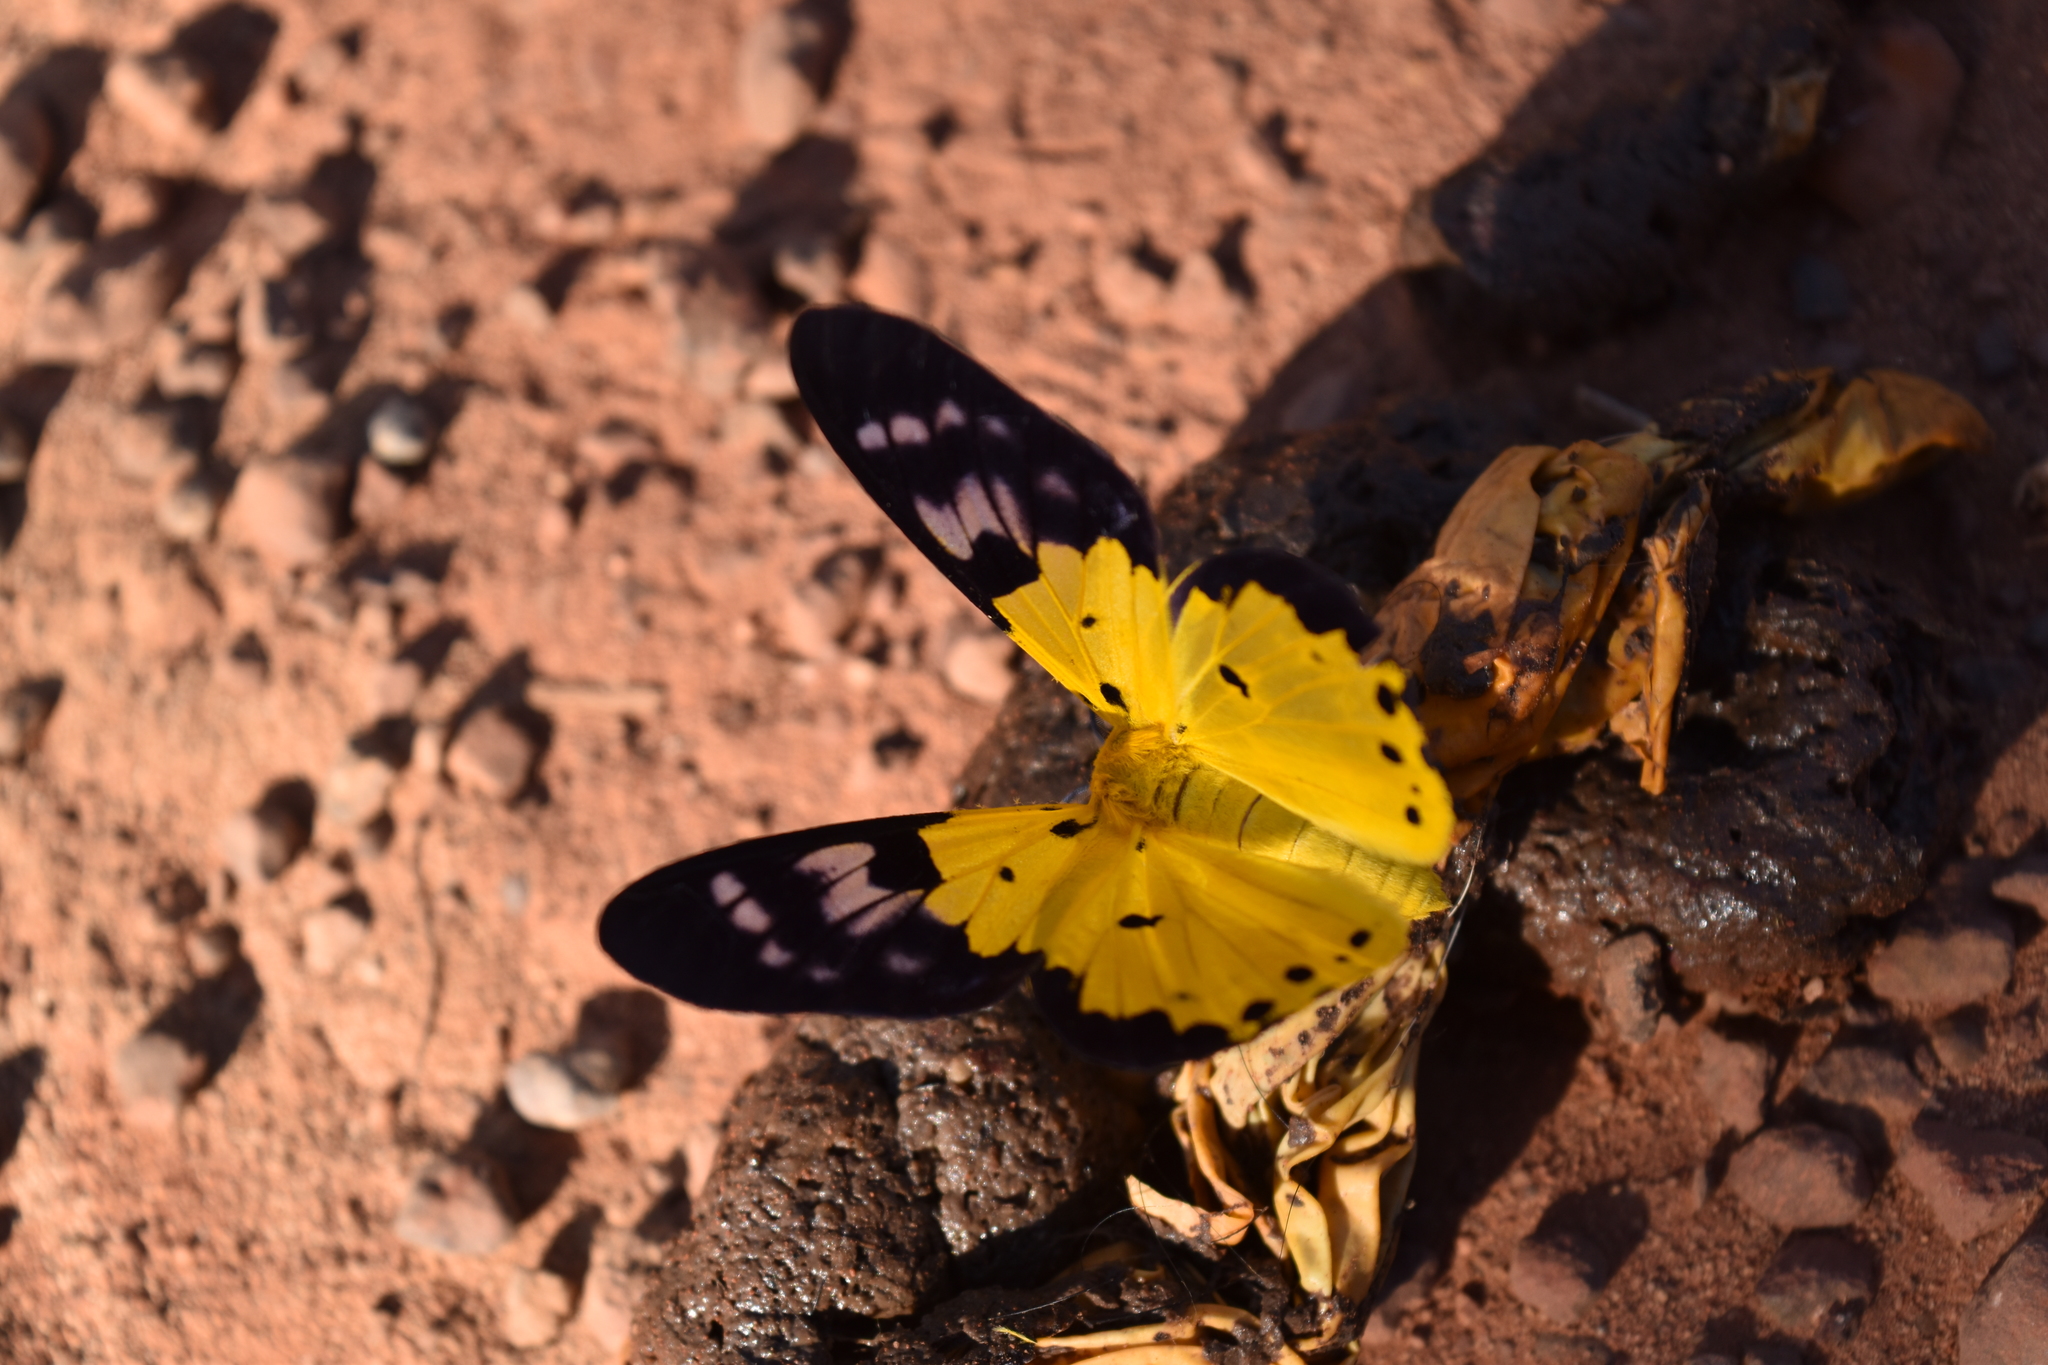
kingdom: Animalia
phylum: Arthropoda
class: Insecta
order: Lepidoptera
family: Geometridae
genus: Dysphania
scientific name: Dysphania sagana
